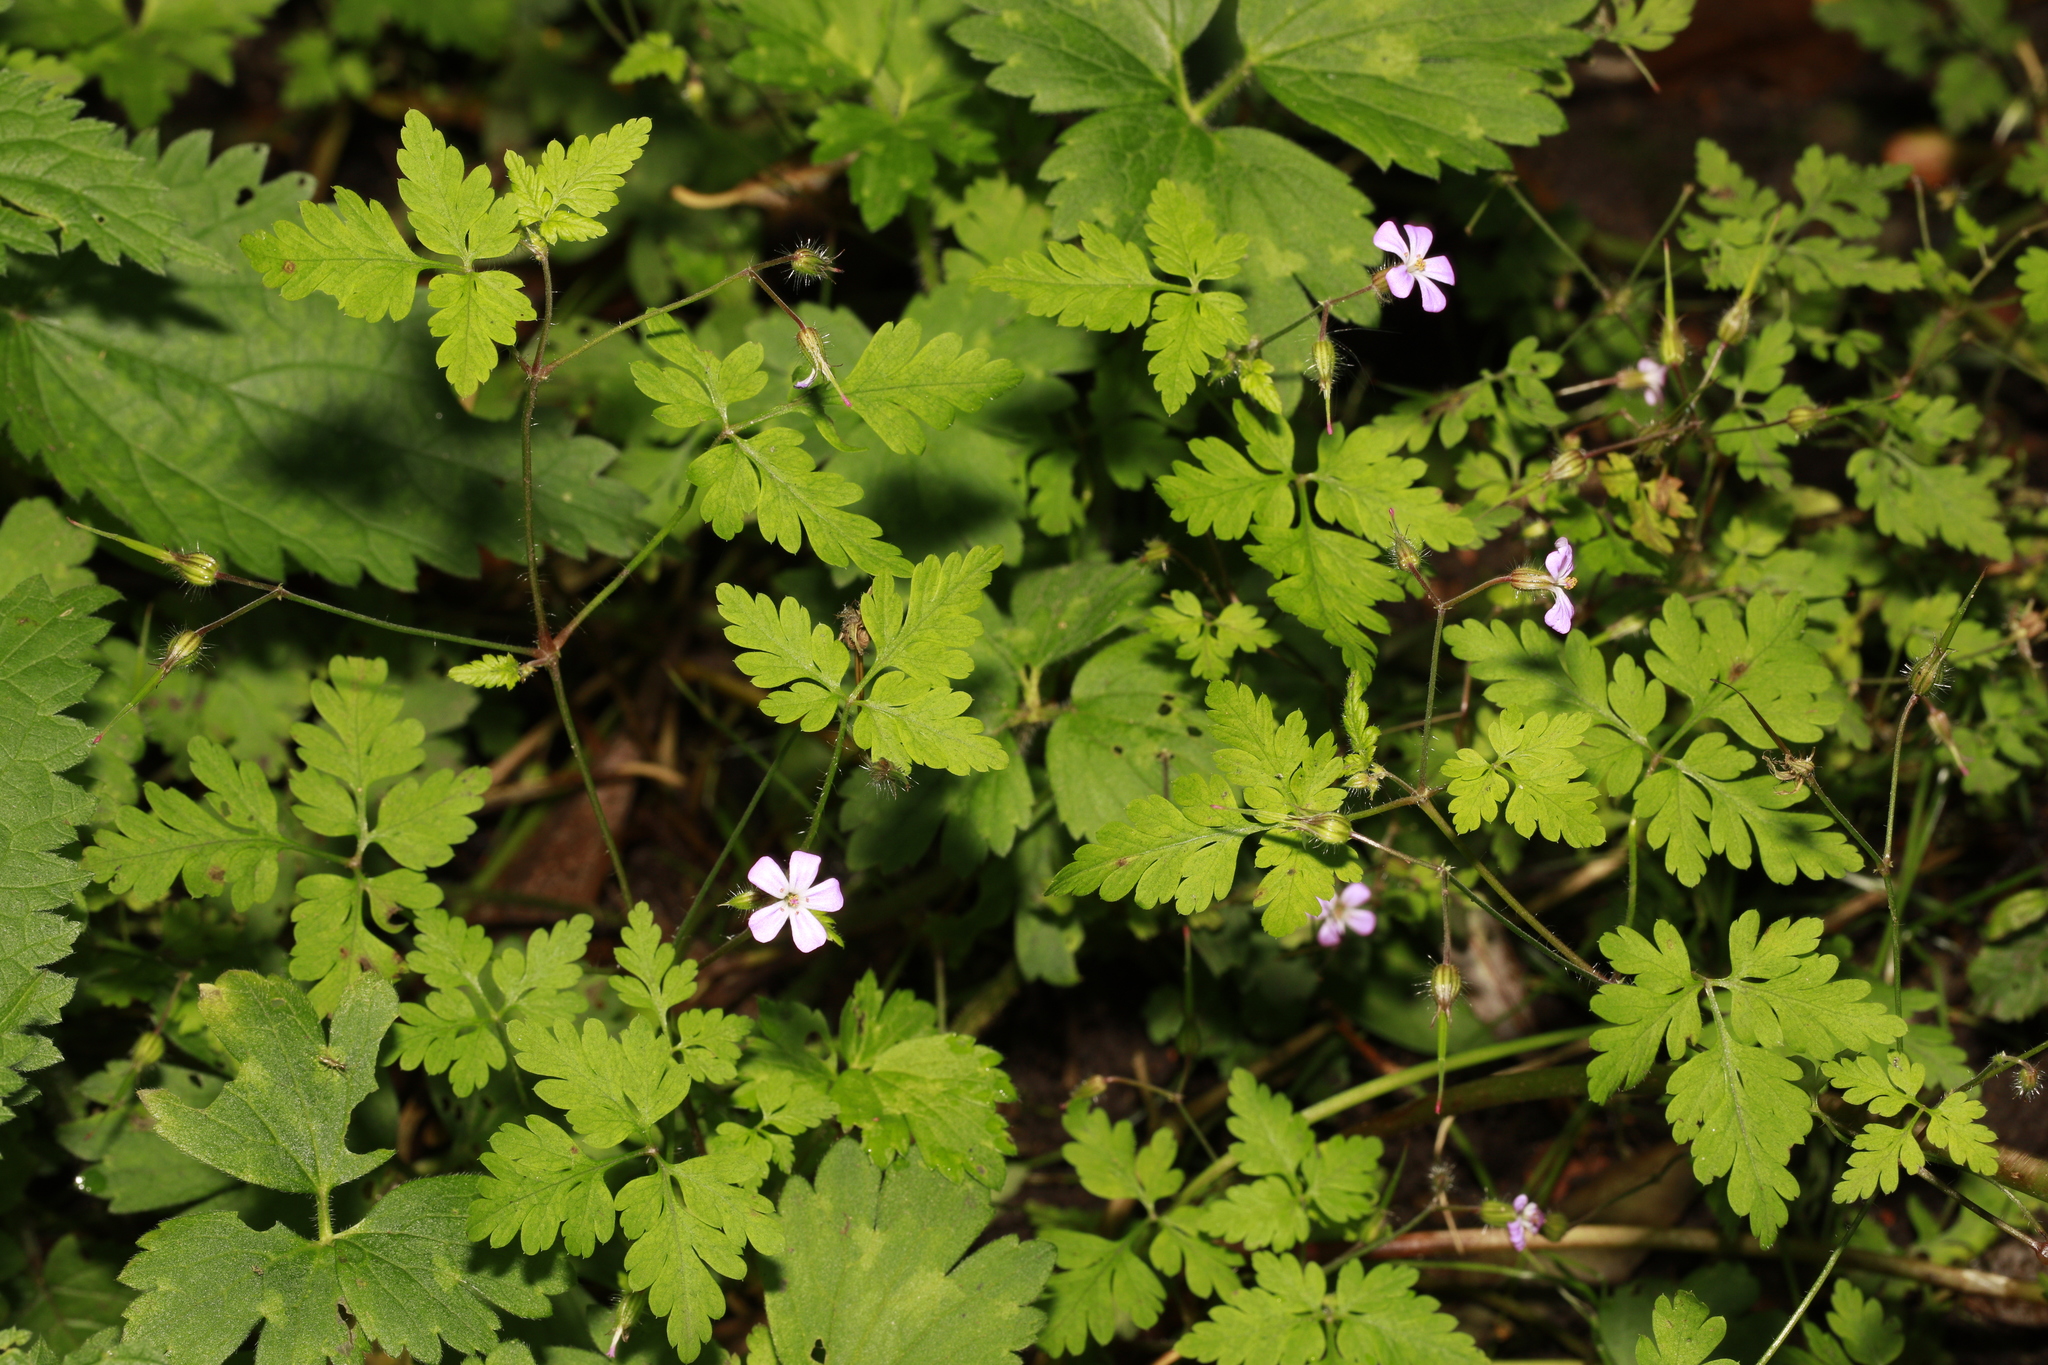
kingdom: Plantae
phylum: Tracheophyta
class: Magnoliopsida
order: Geraniales
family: Geraniaceae
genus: Geranium
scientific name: Geranium robertianum
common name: Herb-robert
